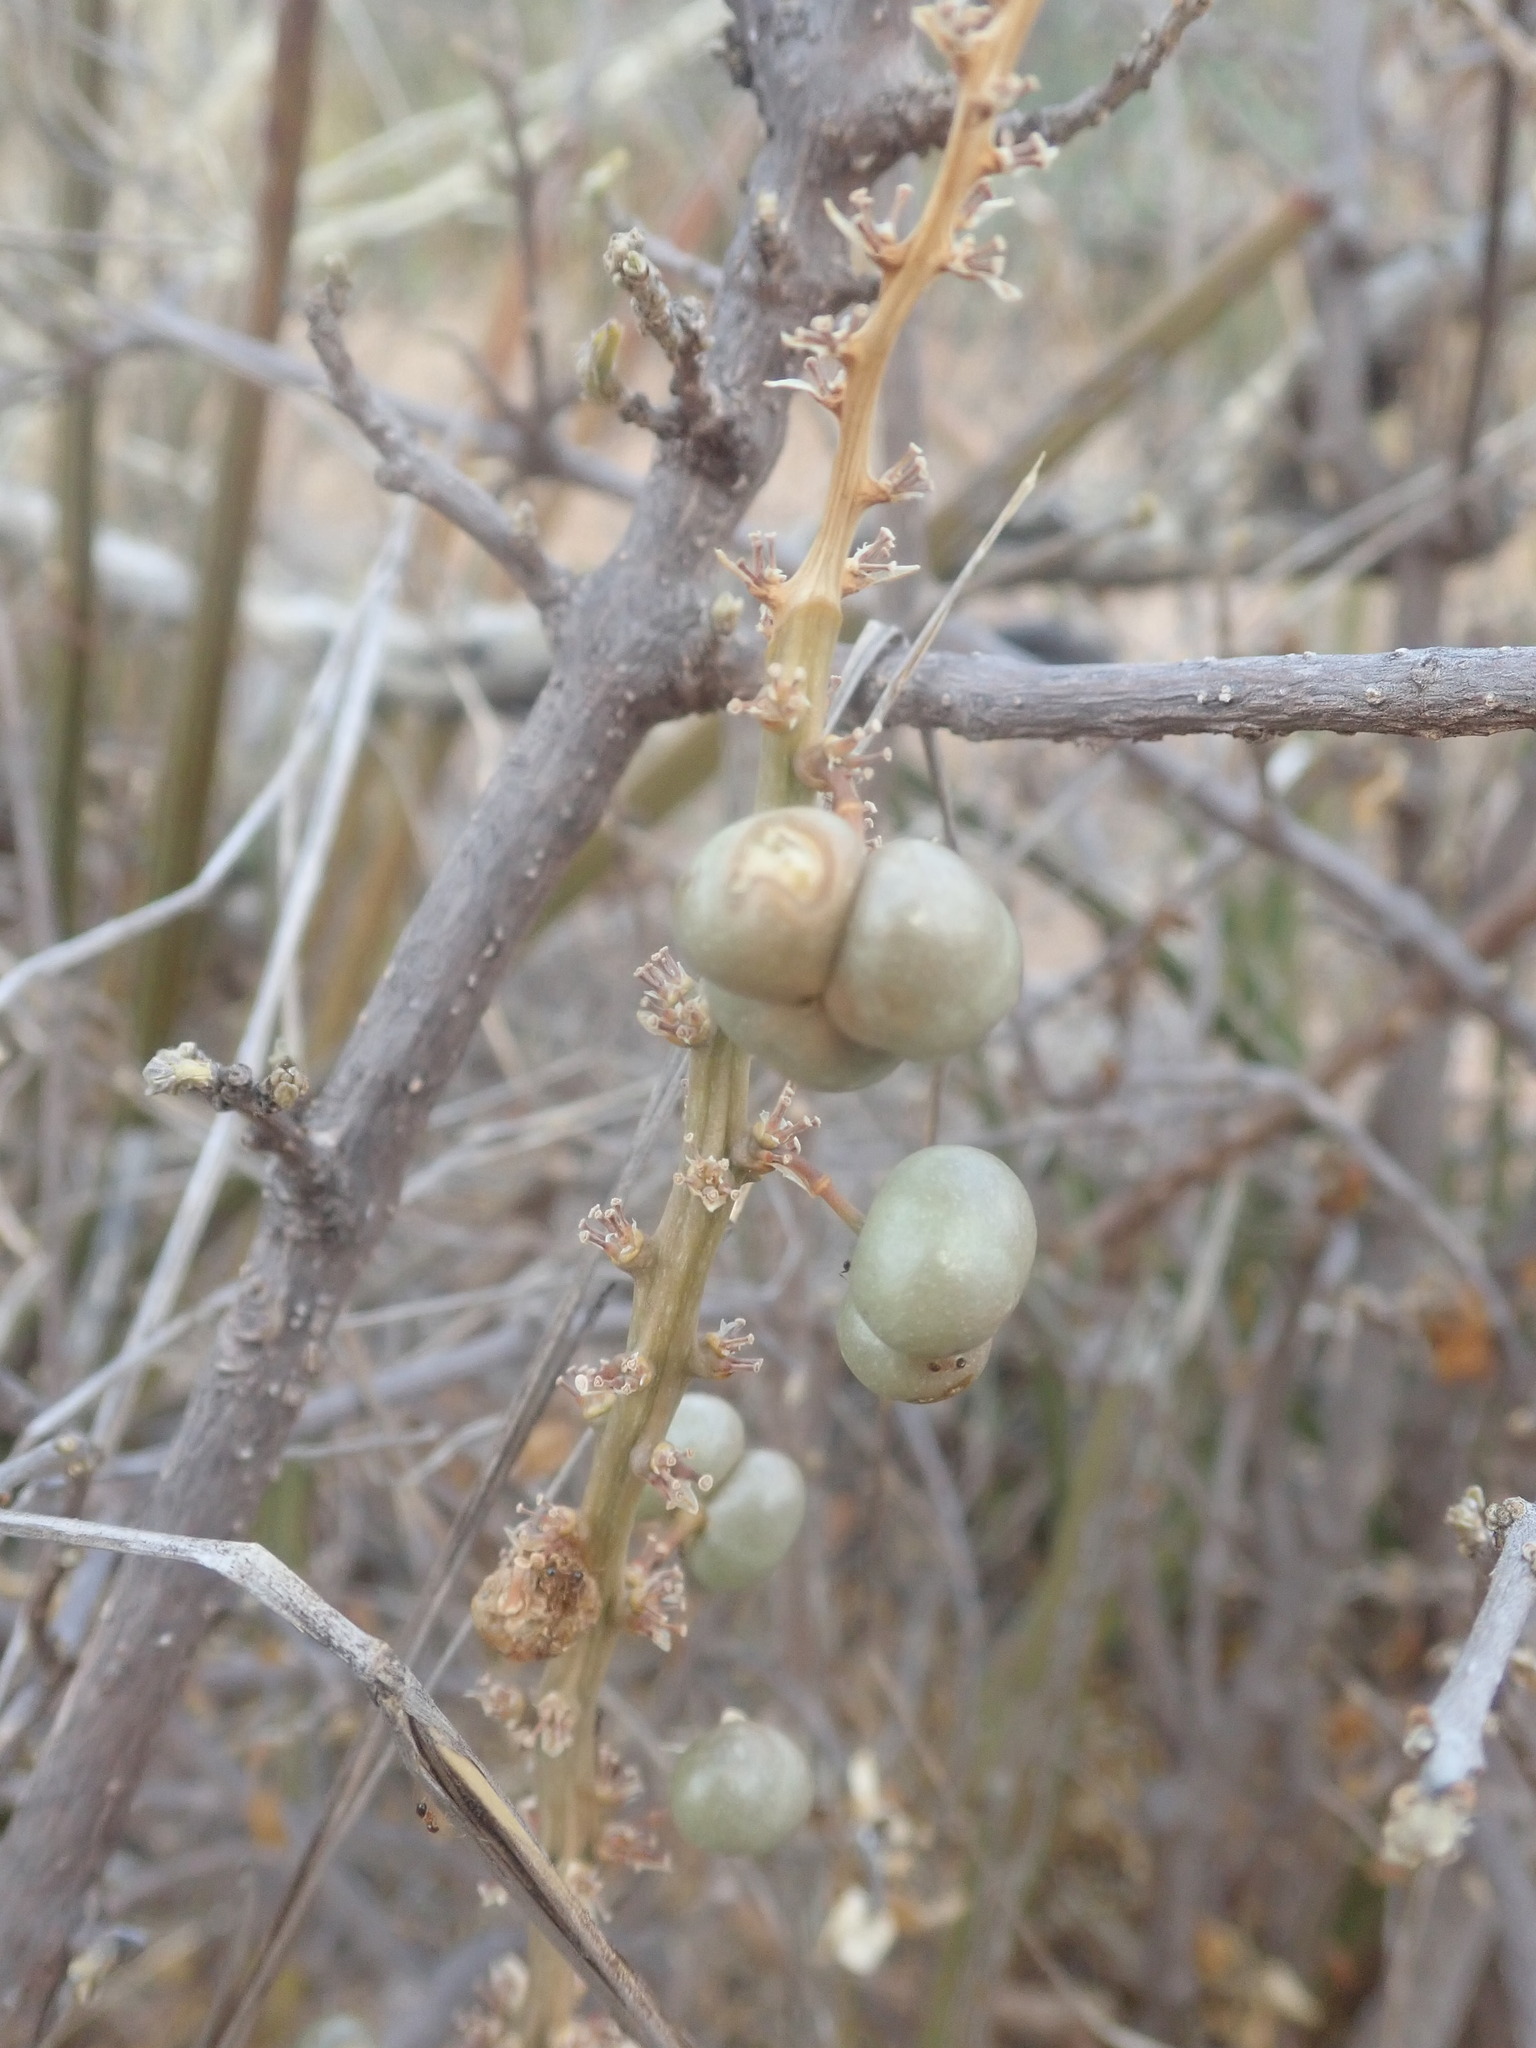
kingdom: Plantae
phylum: Tracheophyta
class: Liliopsida
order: Asparagales
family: Asparagaceae
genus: Dracaena
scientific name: Dracaena hyacinthoides
